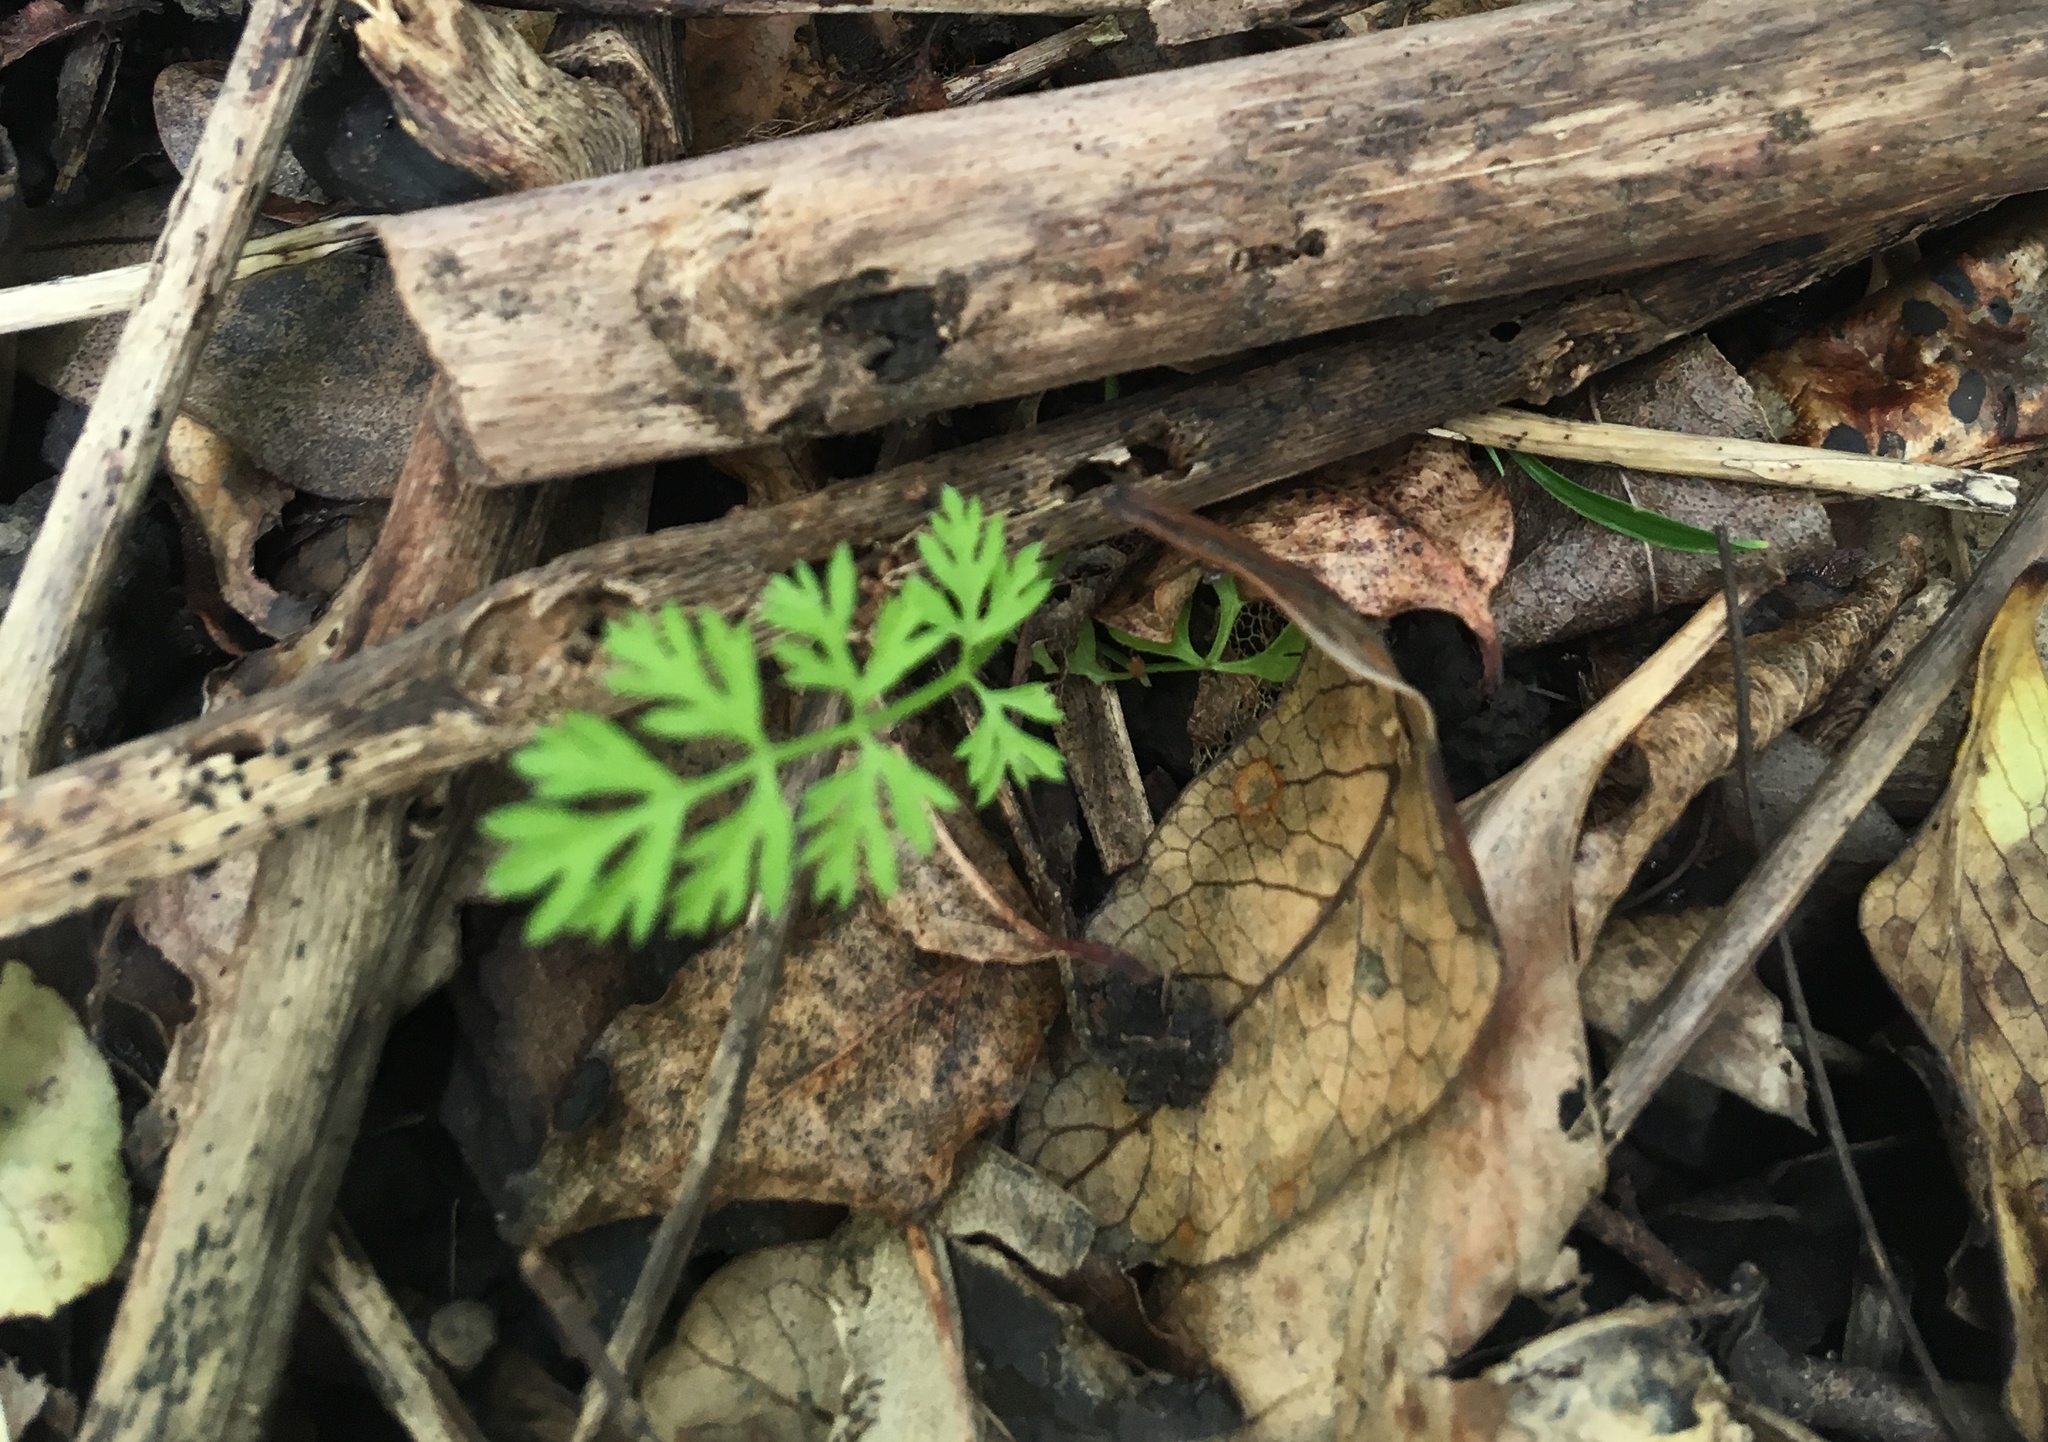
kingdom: Plantae
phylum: Tracheophyta
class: Magnoliopsida
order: Apiales
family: Apiaceae
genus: Daucus
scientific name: Daucus carota
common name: Wild carrot
